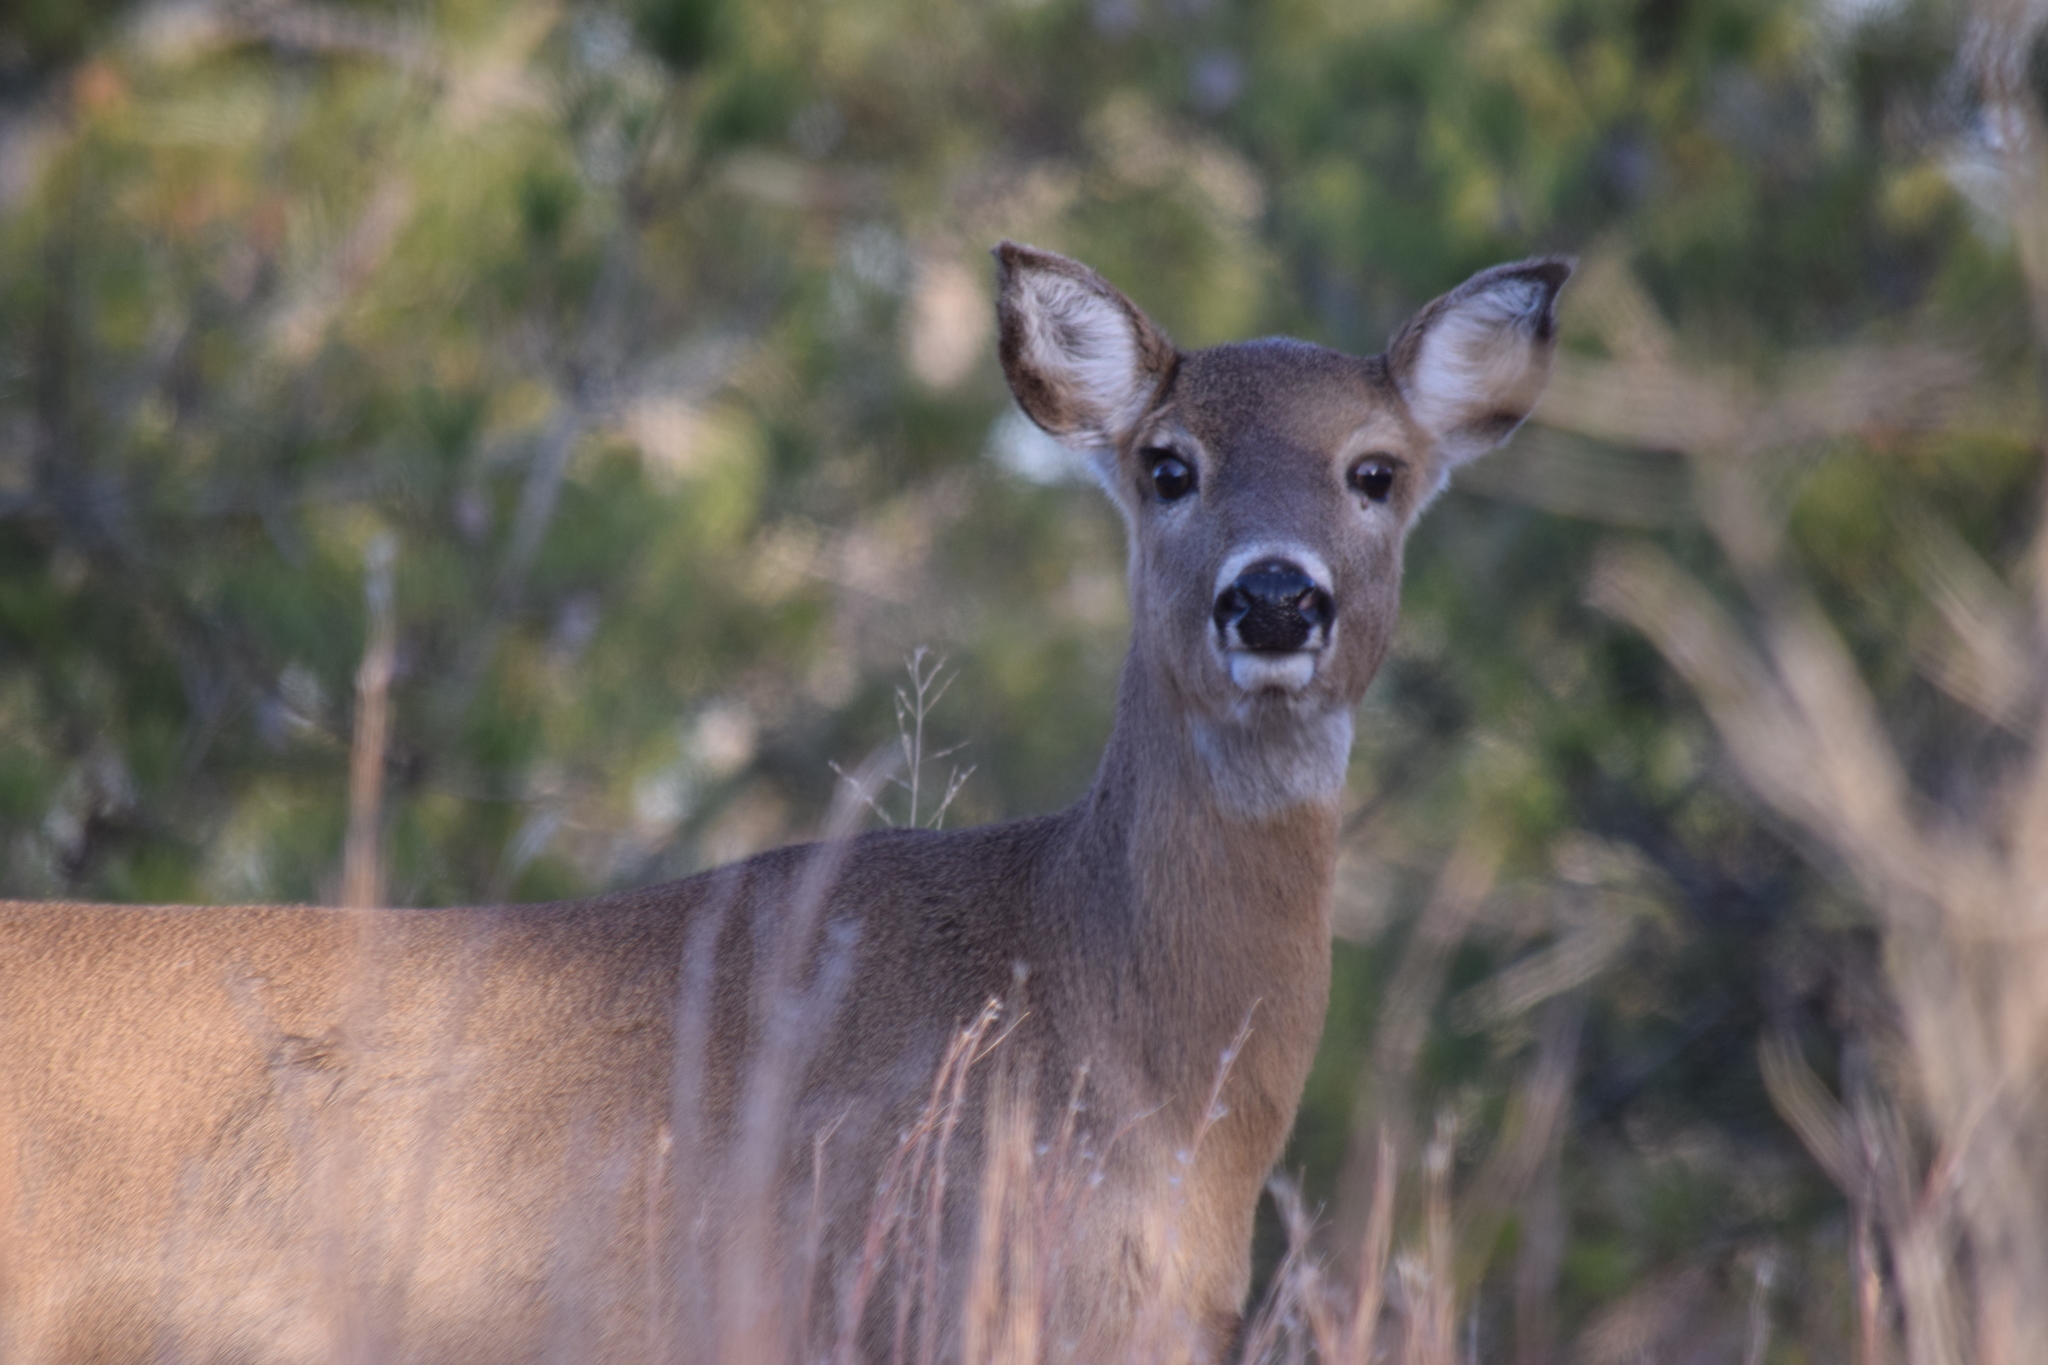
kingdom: Animalia
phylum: Chordata
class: Mammalia
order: Artiodactyla
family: Cervidae
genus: Odocoileus
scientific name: Odocoileus virginianus
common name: White-tailed deer
